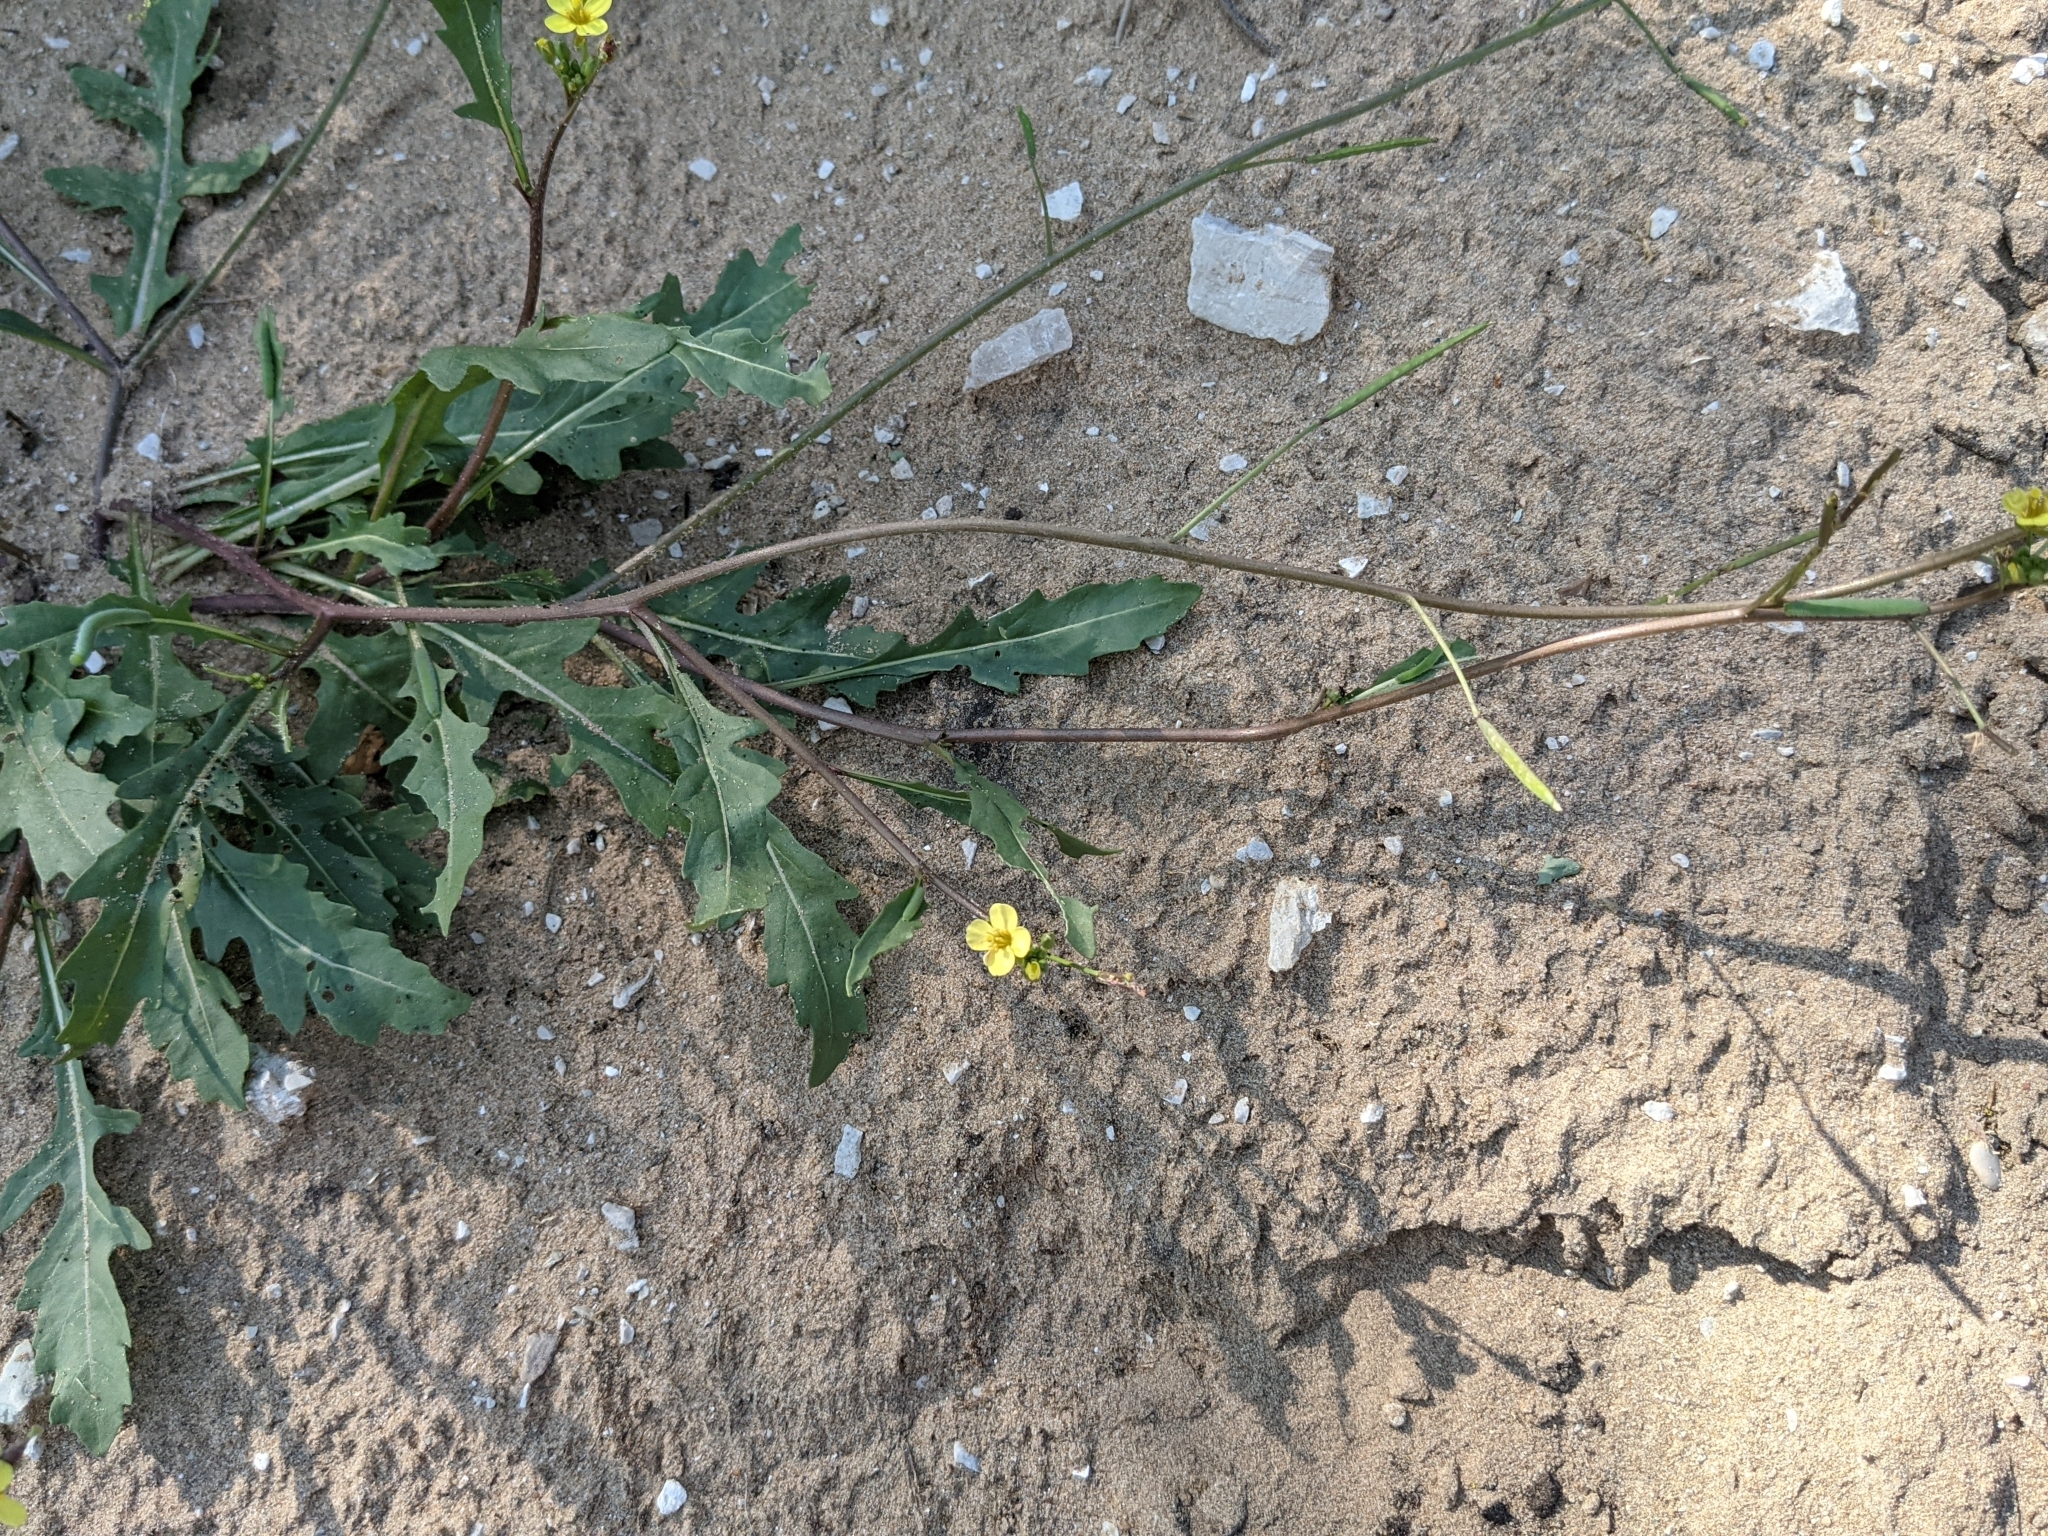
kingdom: Plantae
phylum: Tracheophyta
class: Magnoliopsida
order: Brassicales
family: Brassicaceae
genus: Diplotaxis
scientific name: Diplotaxis muralis
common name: Annual wall-rocket
